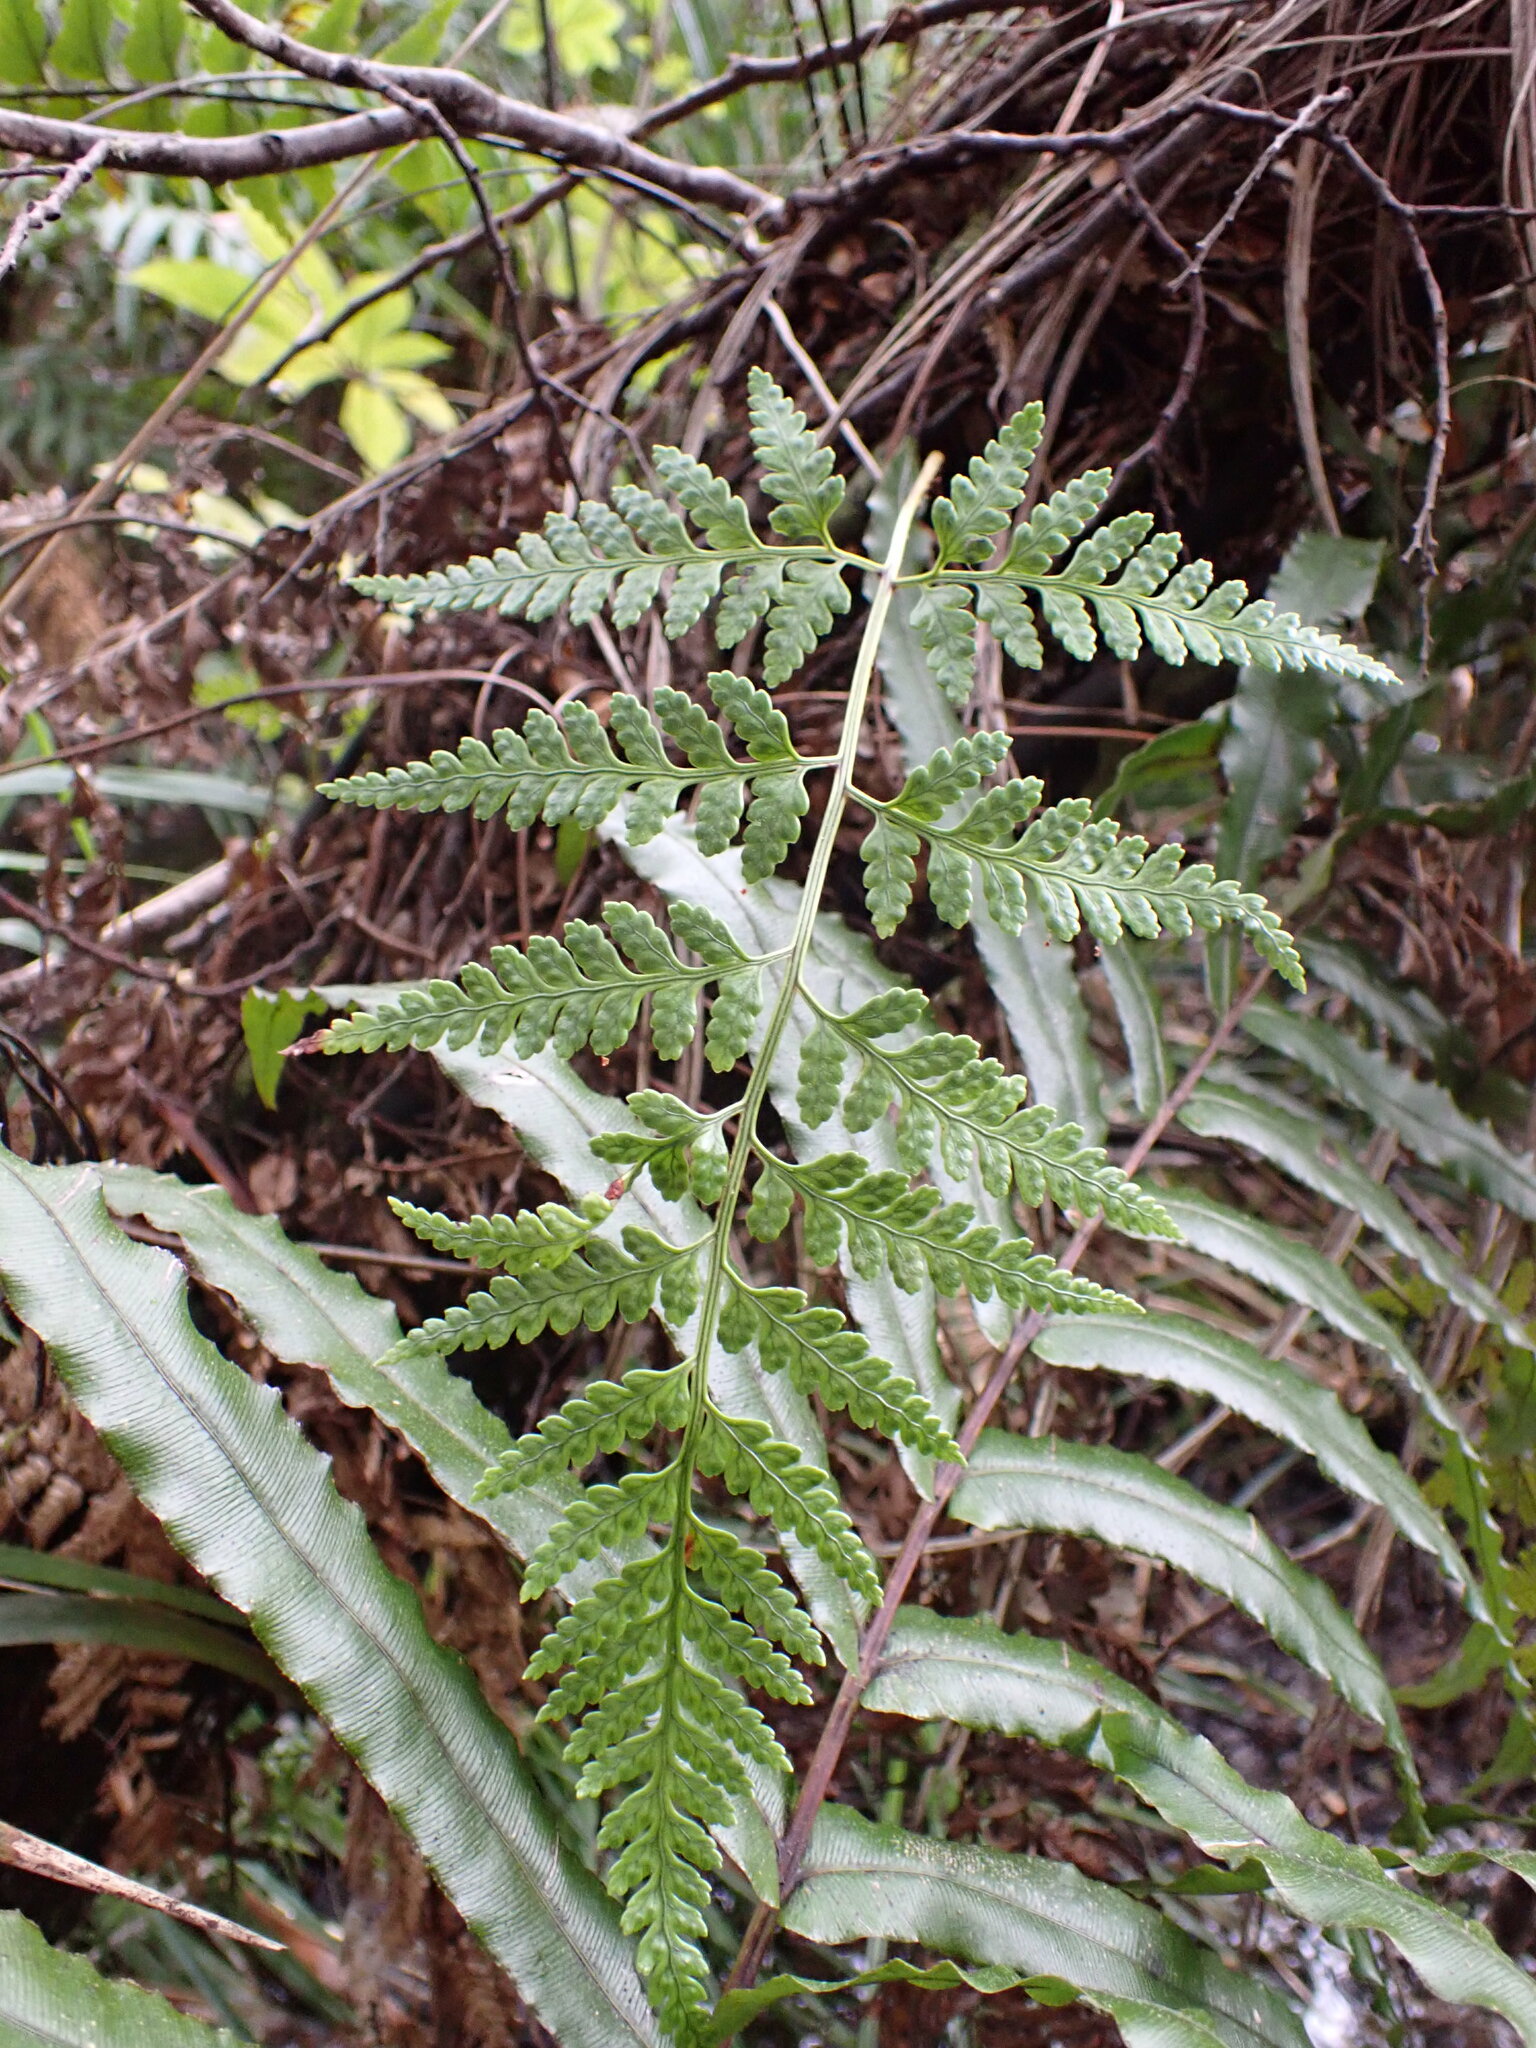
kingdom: Plantae
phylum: Tracheophyta
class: Polypodiopsida
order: Polypodiales
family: Dryopteridaceae
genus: Rumohra
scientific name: Rumohra adiantiformis
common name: Leather fern
